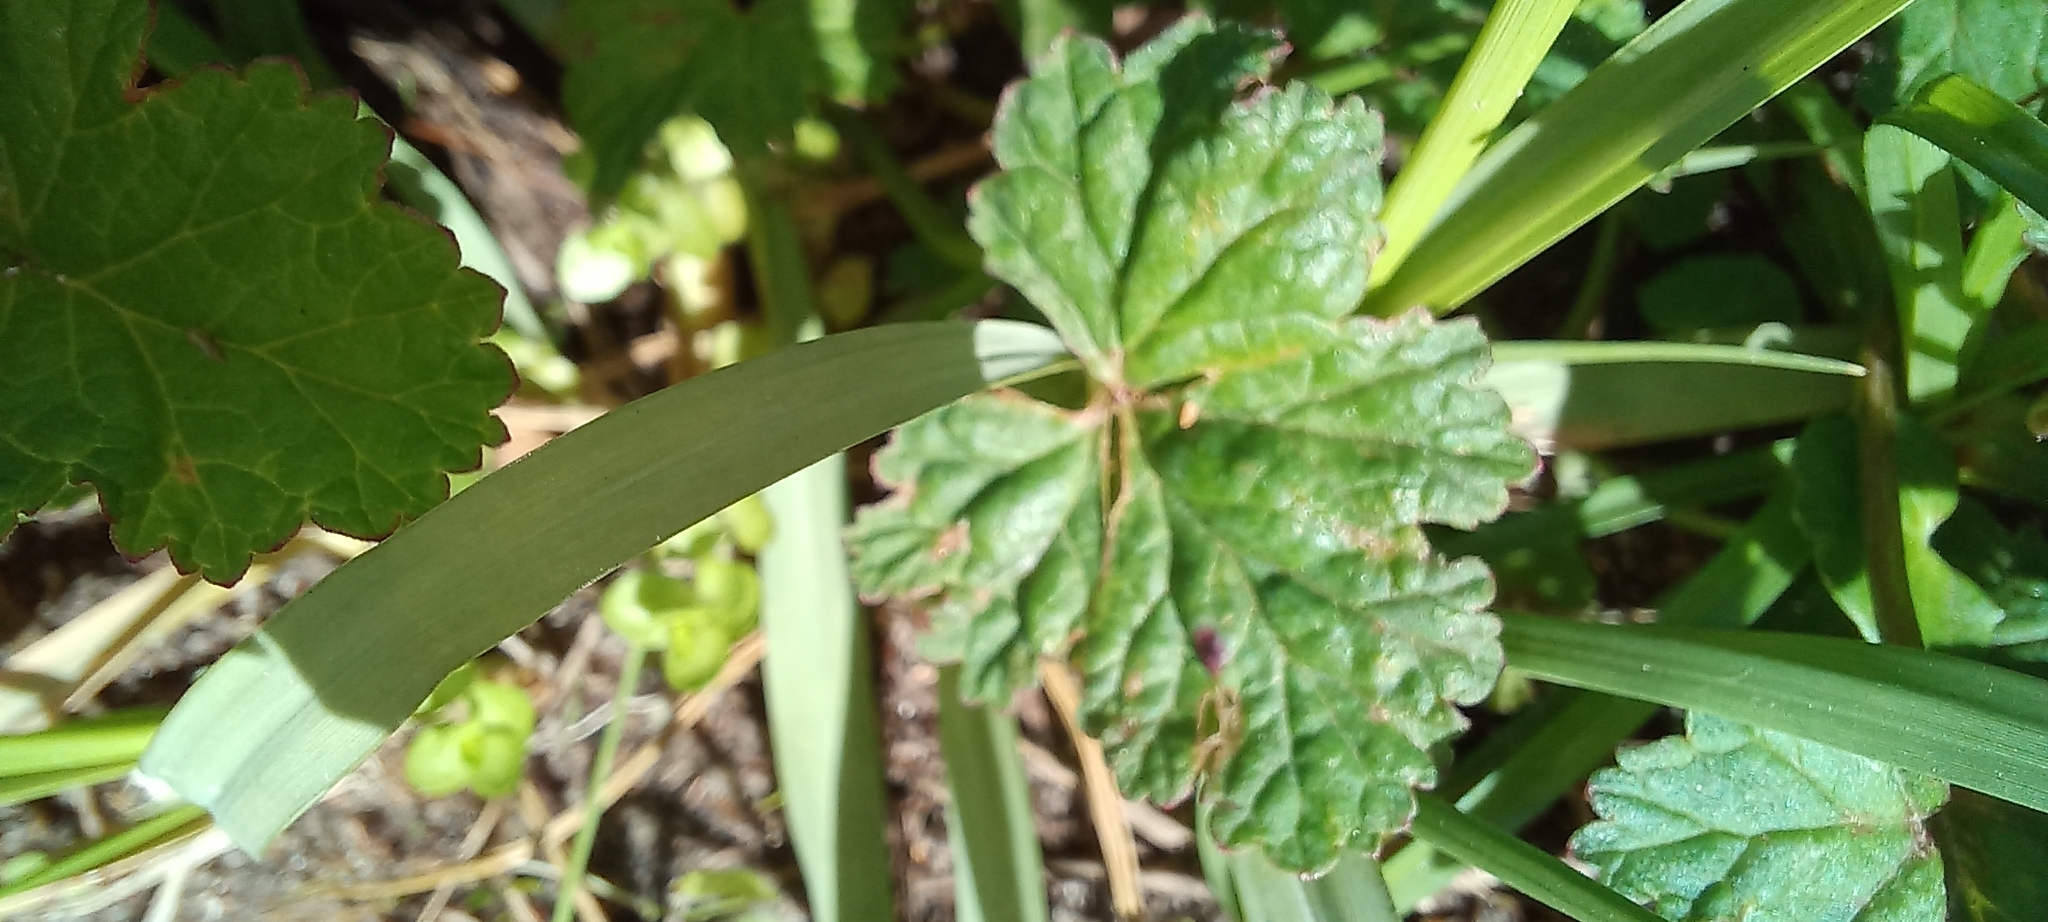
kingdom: Plantae
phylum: Tracheophyta
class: Magnoliopsida
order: Geraniales
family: Geraniaceae
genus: Pelargonium
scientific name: Pelargonium grossularioides
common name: Gooseberry geranium
